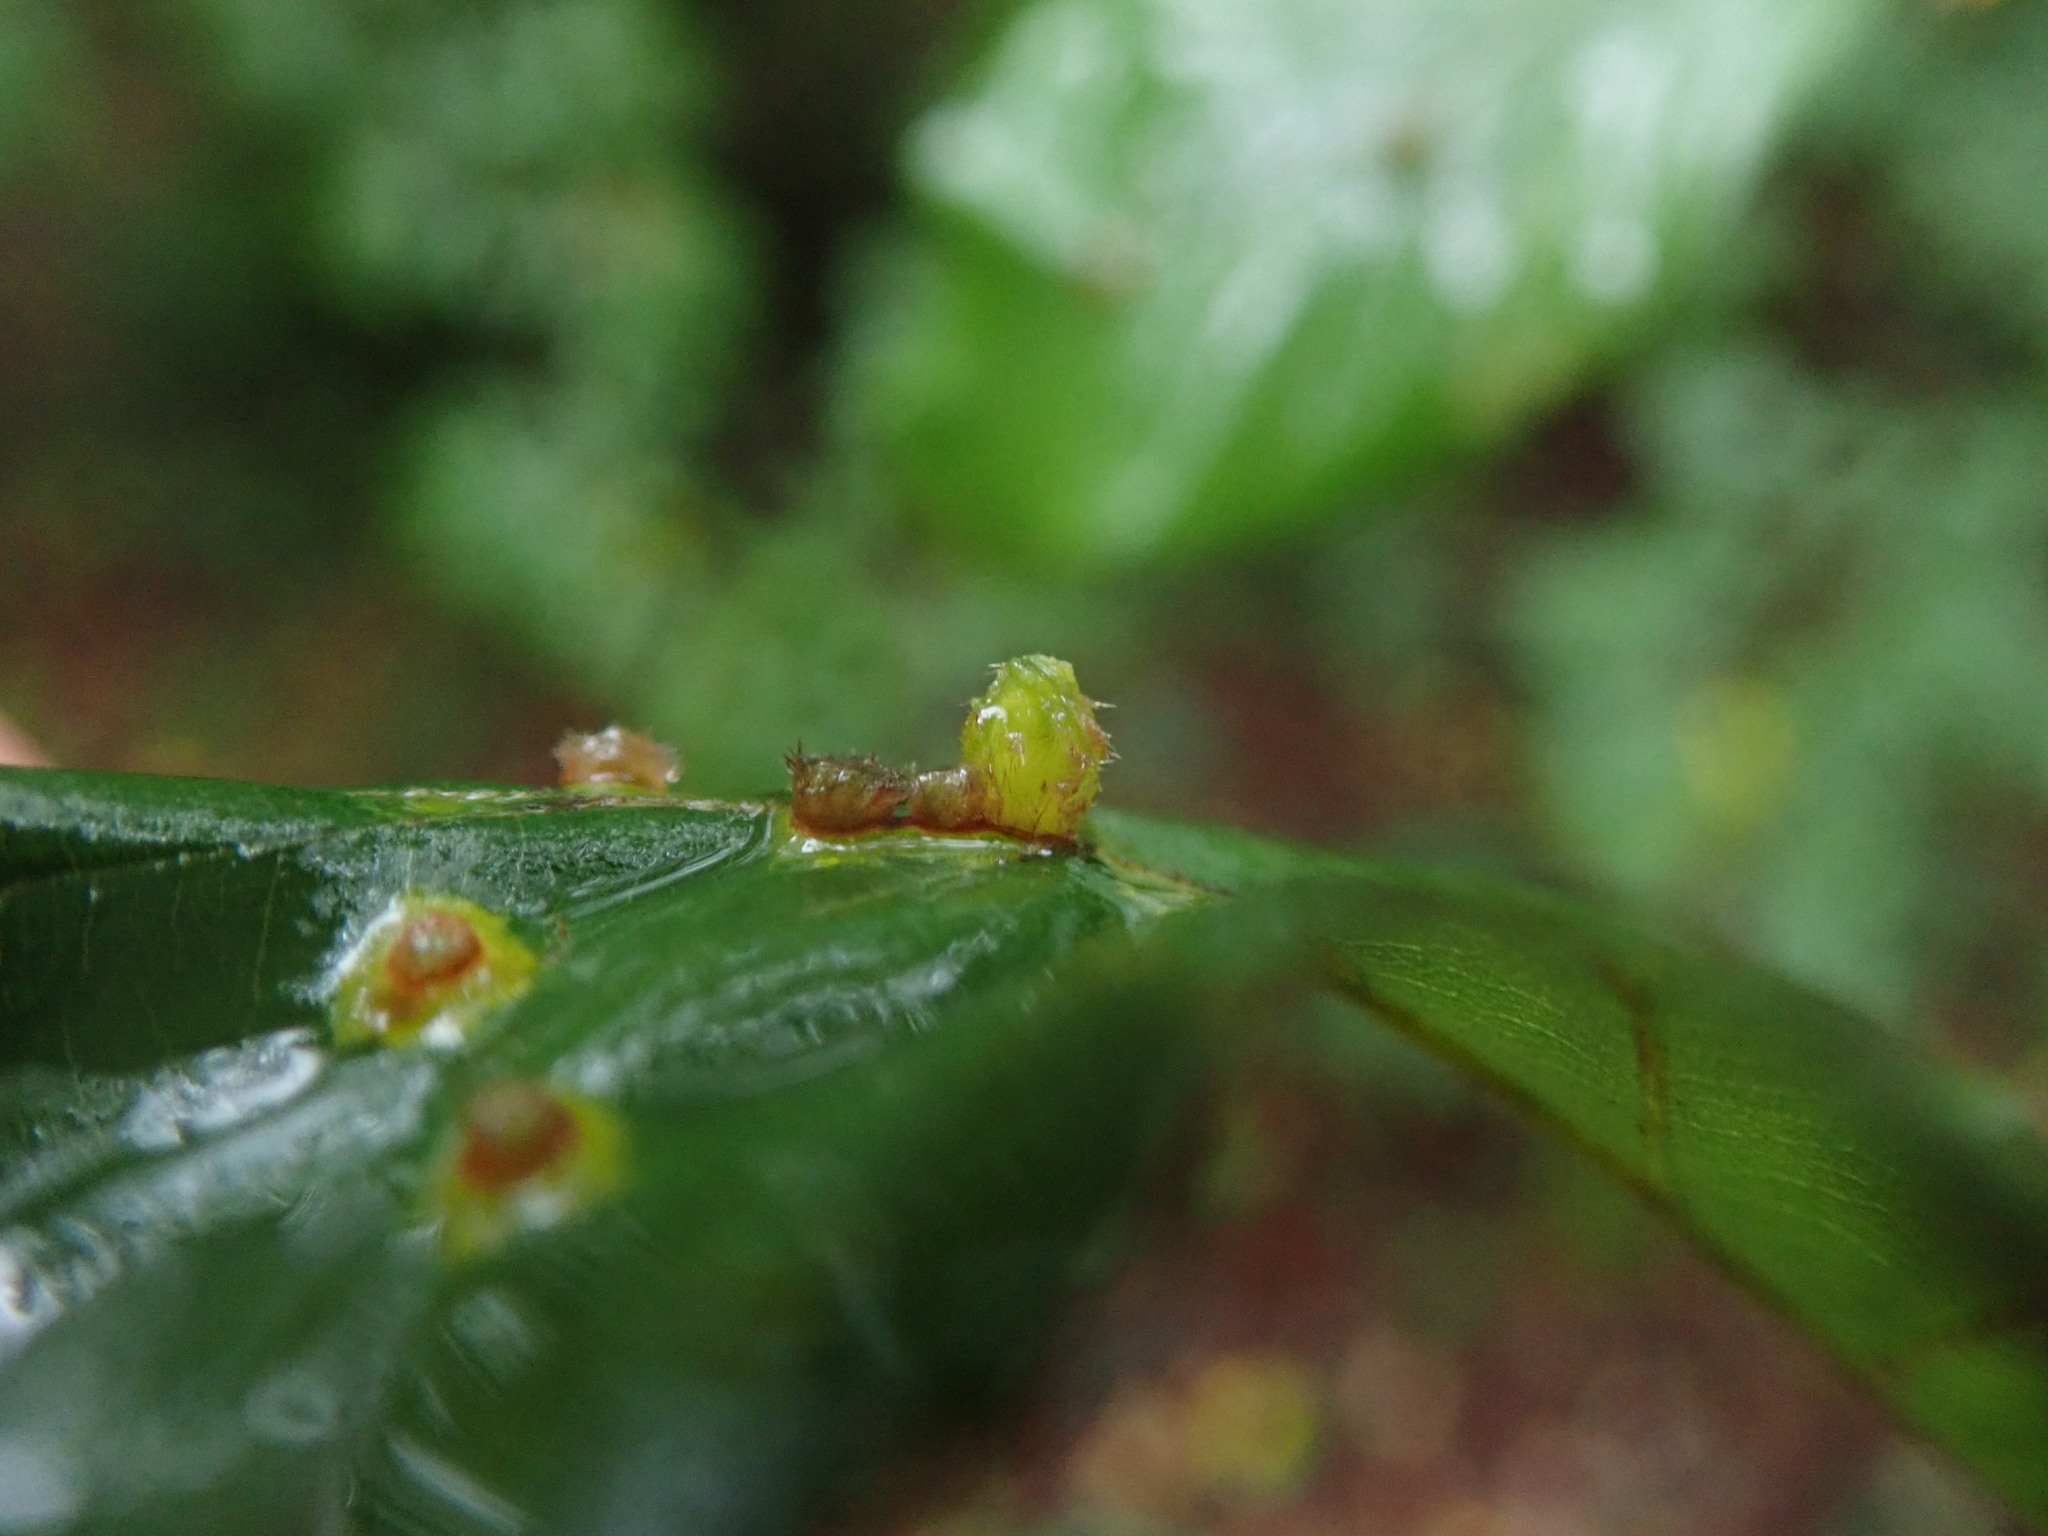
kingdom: Animalia
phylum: Arthropoda
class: Insecta
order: Diptera
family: Cecidomyiidae
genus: Hartigiola
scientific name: Hartigiola annulipes
